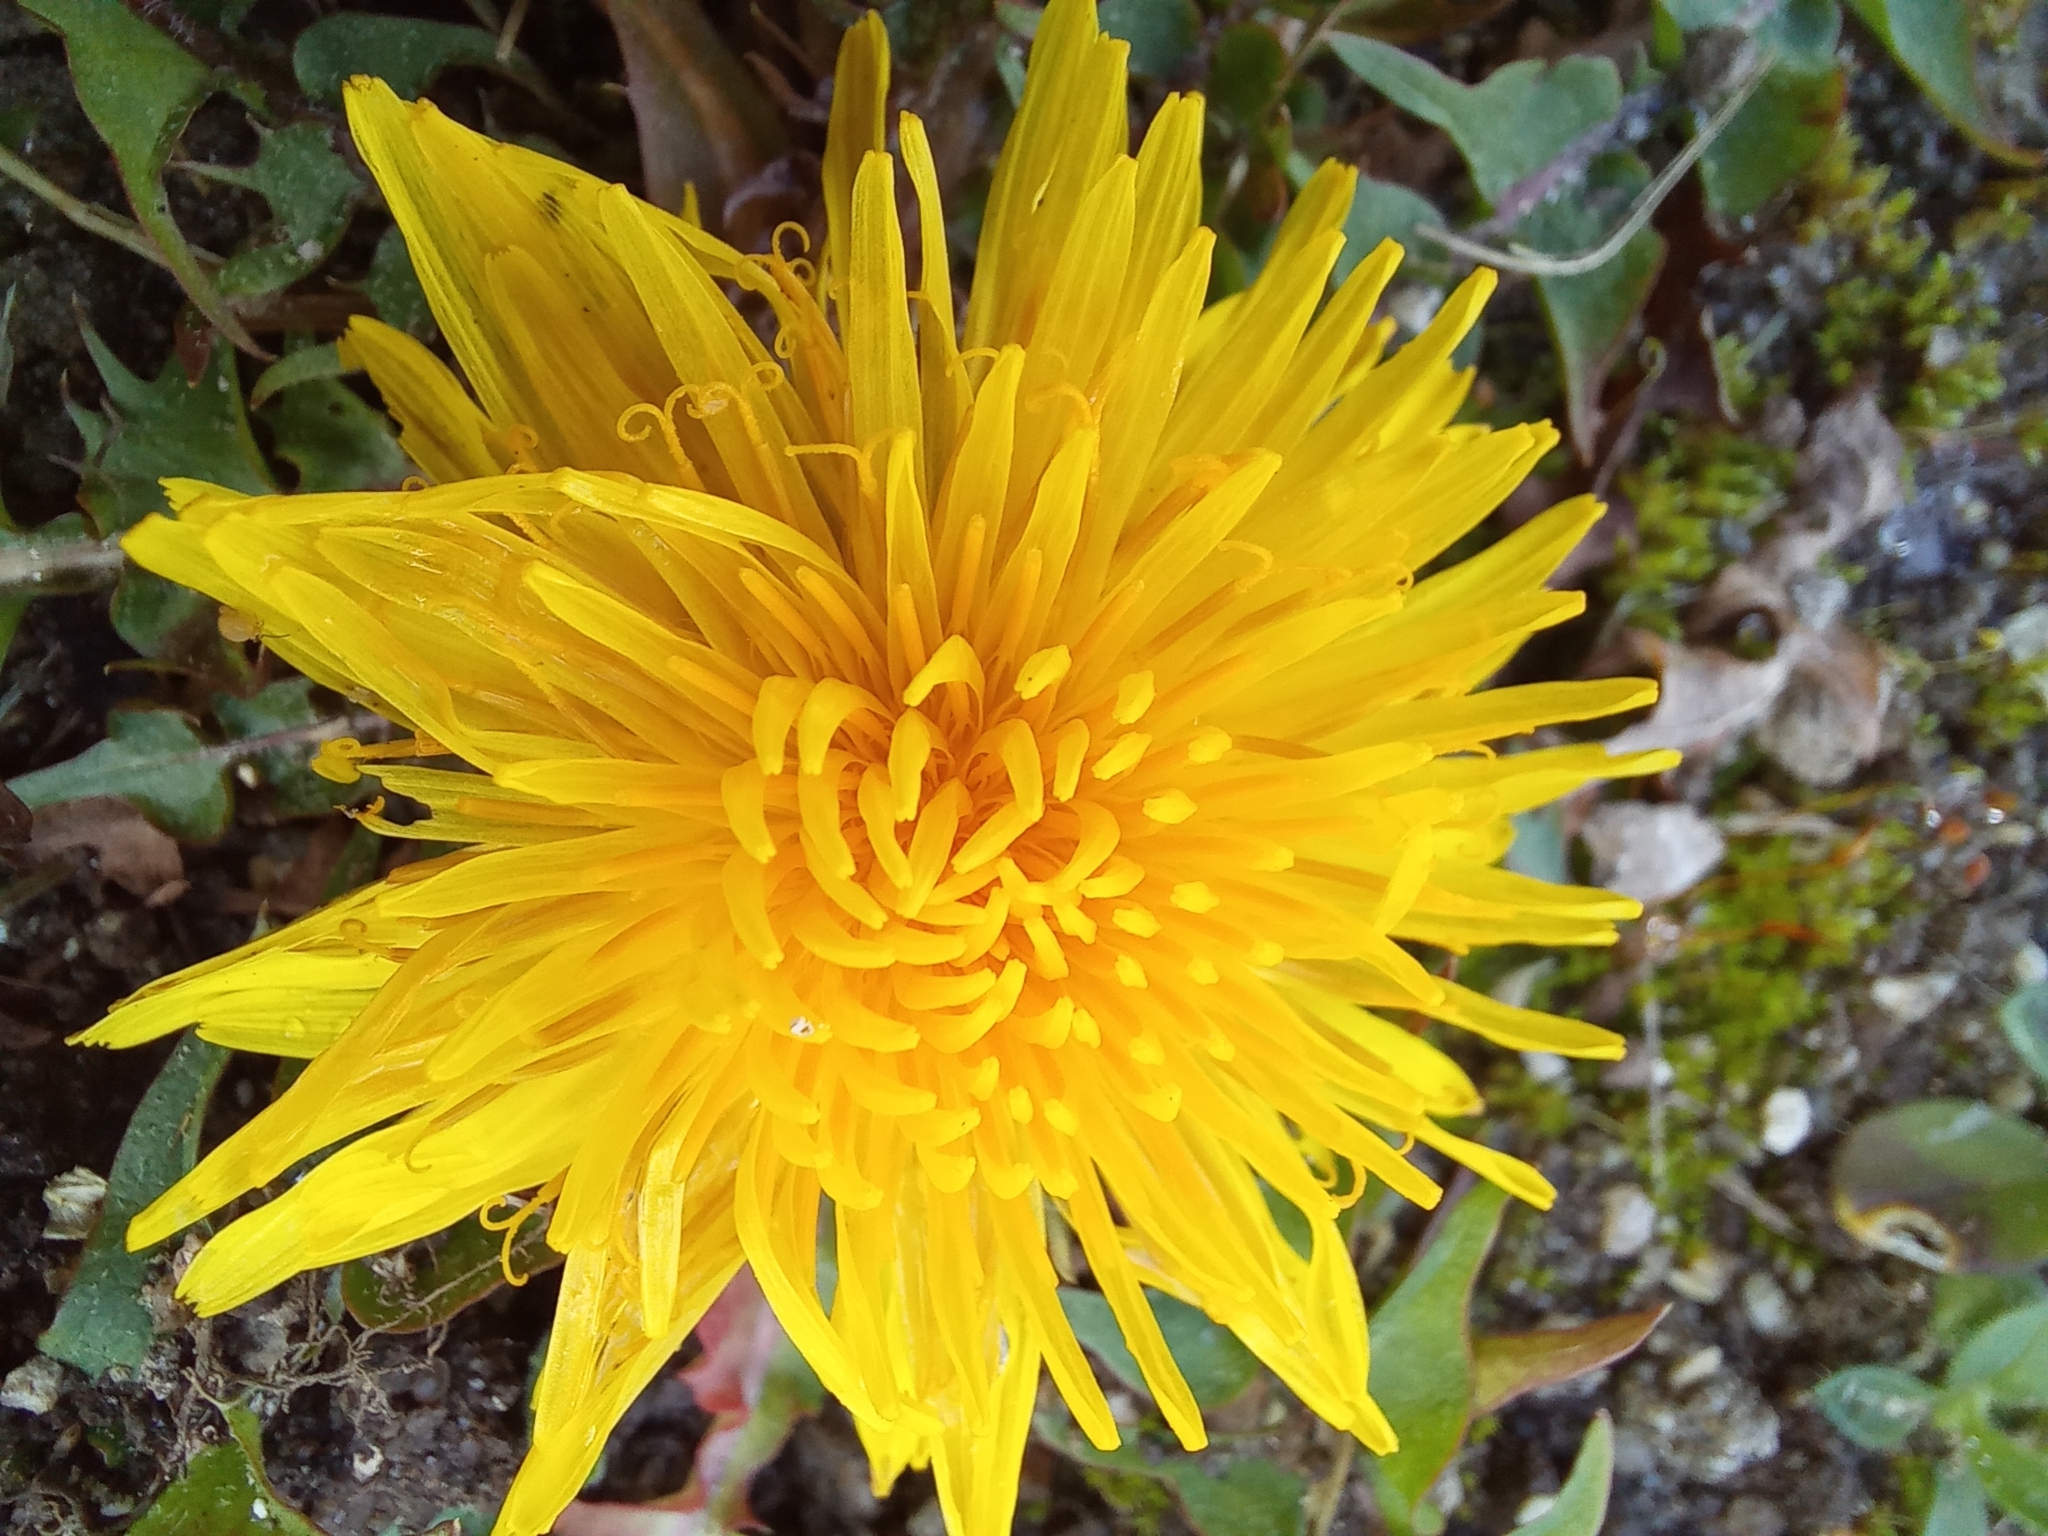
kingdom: Plantae
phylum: Tracheophyta
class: Magnoliopsida
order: Asterales
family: Asteraceae
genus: Taraxacum
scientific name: Taraxacum officinale
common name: Common dandelion
